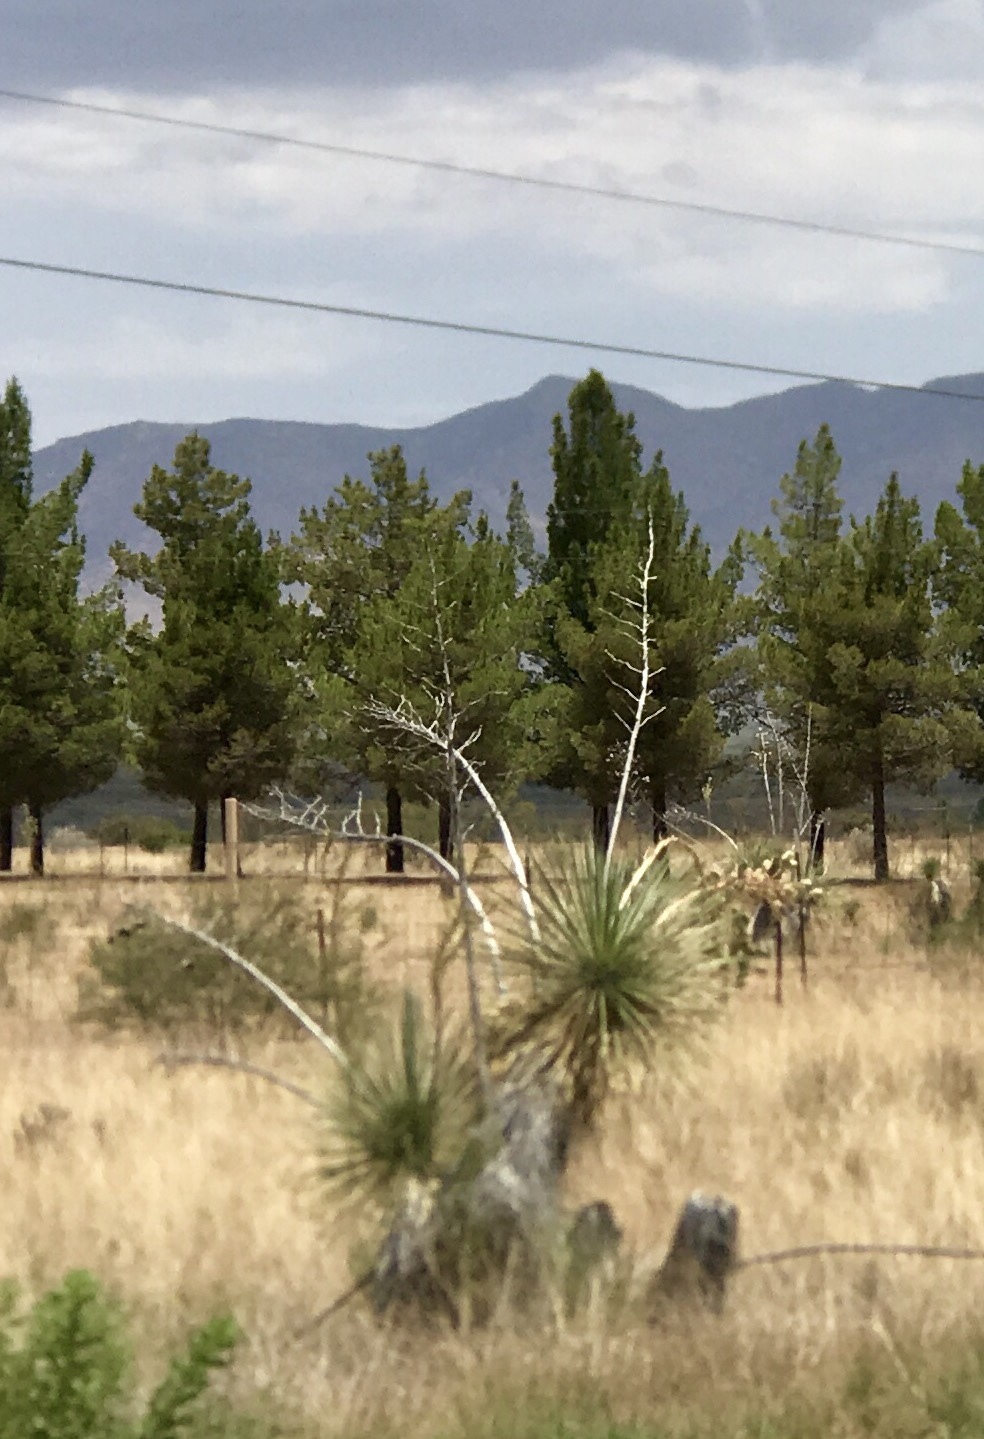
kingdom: Plantae
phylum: Tracheophyta
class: Liliopsida
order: Asparagales
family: Asparagaceae
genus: Yucca
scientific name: Yucca elata
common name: Palmella
